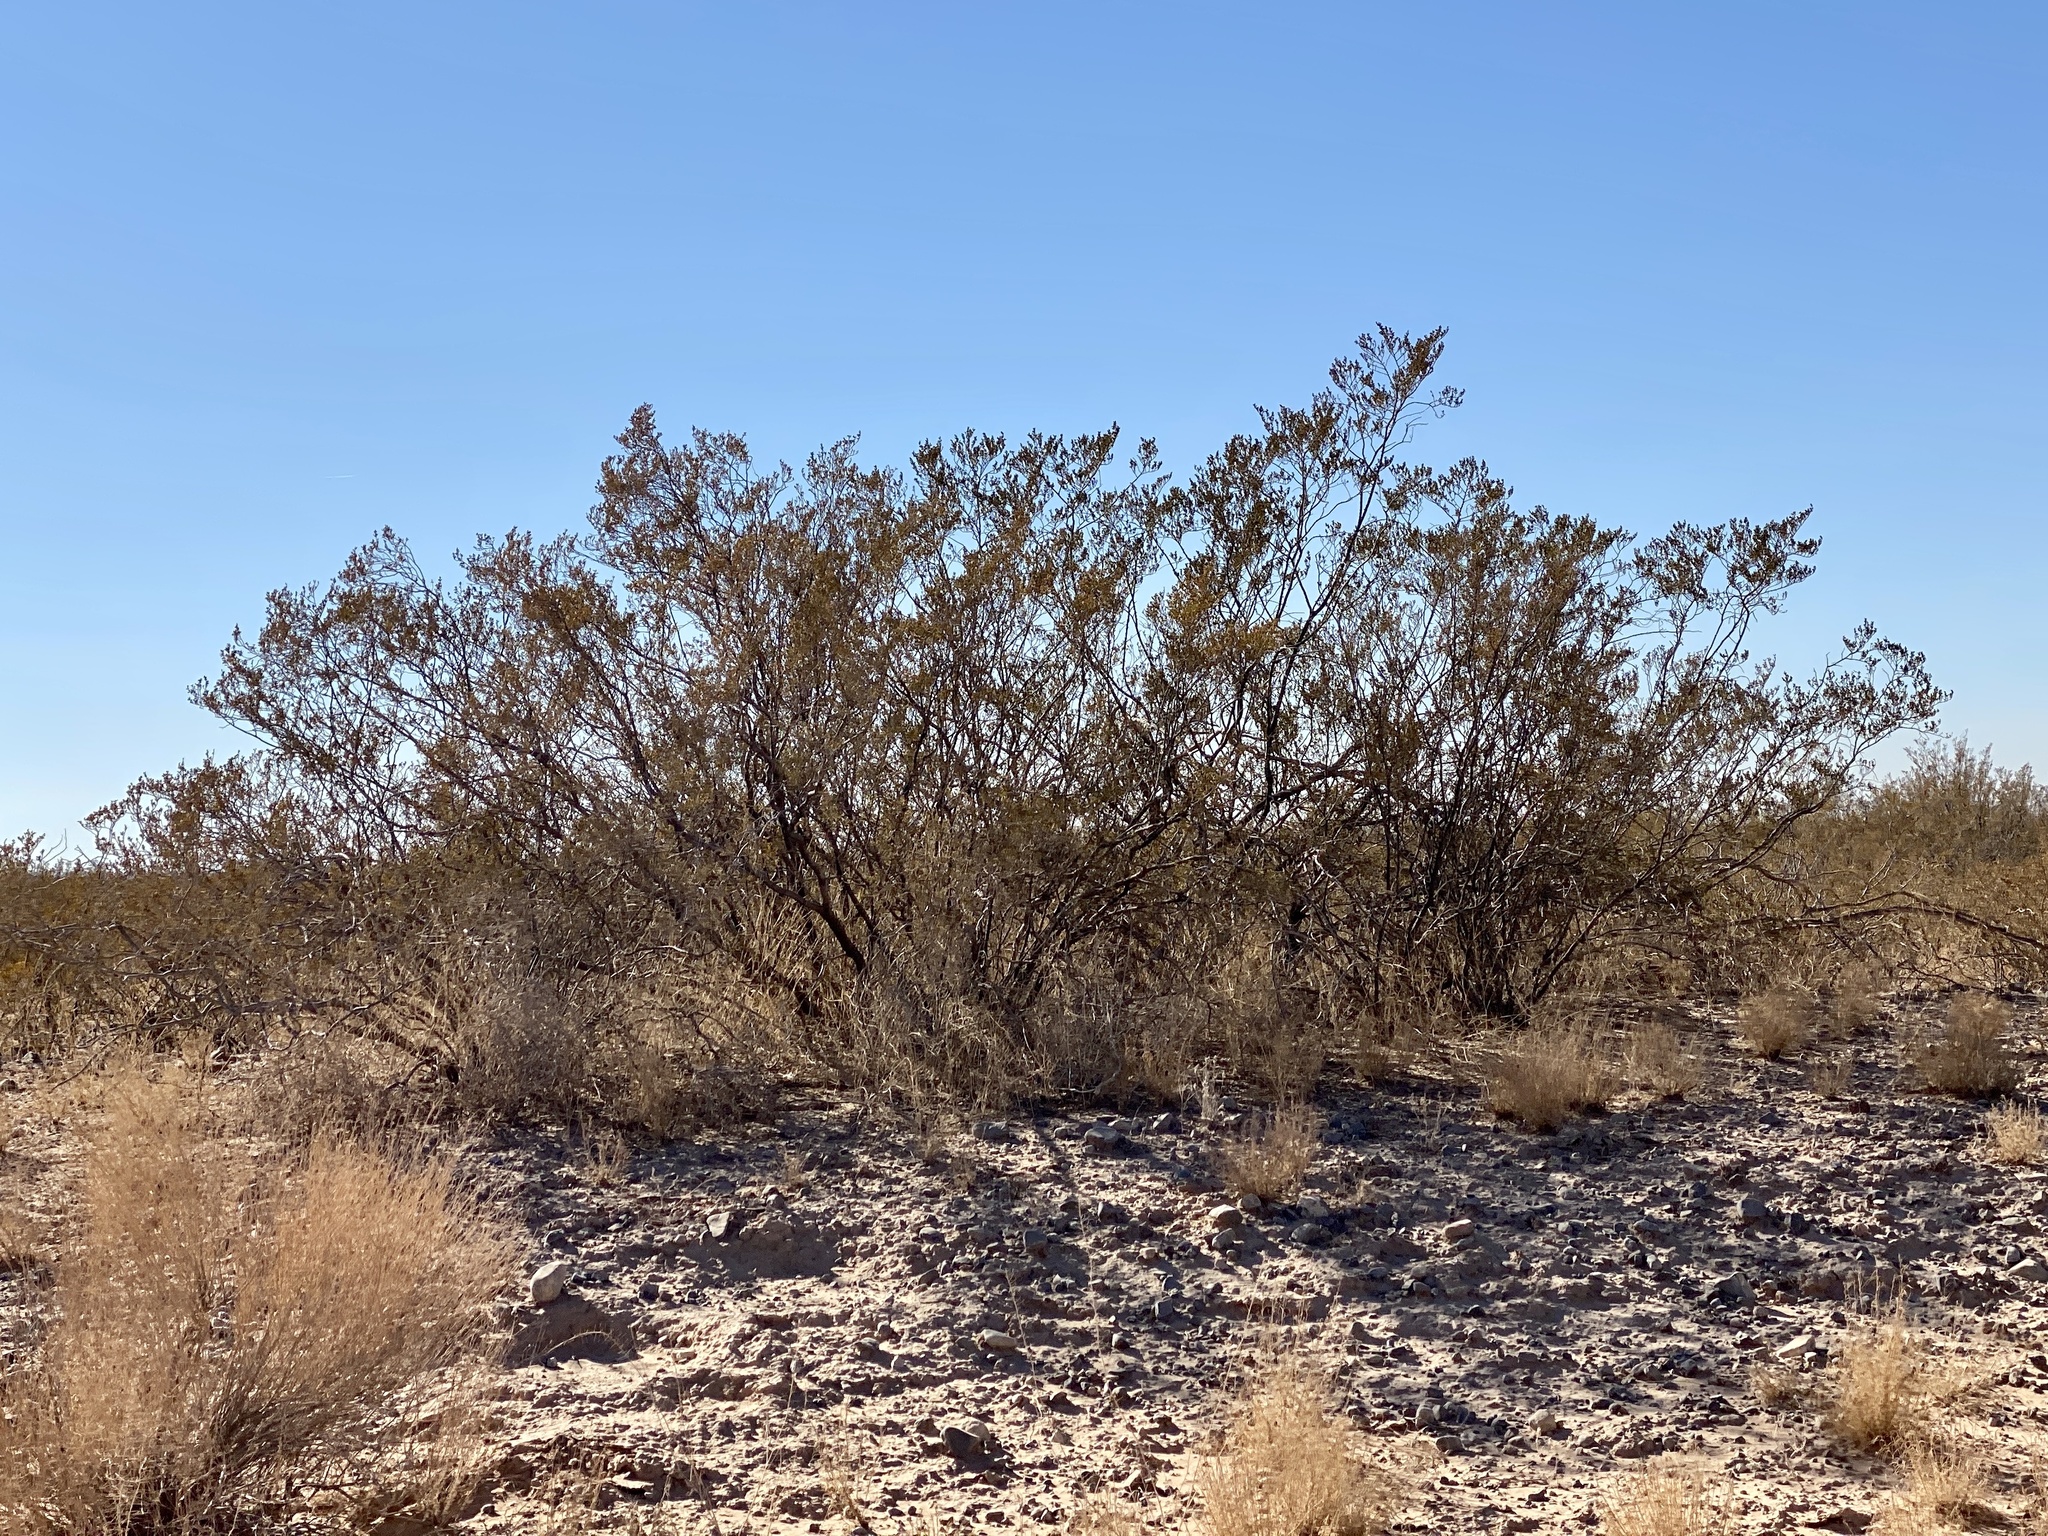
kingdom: Plantae
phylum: Tracheophyta
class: Magnoliopsida
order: Zygophyllales
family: Zygophyllaceae
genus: Larrea
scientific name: Larrea tridentata
